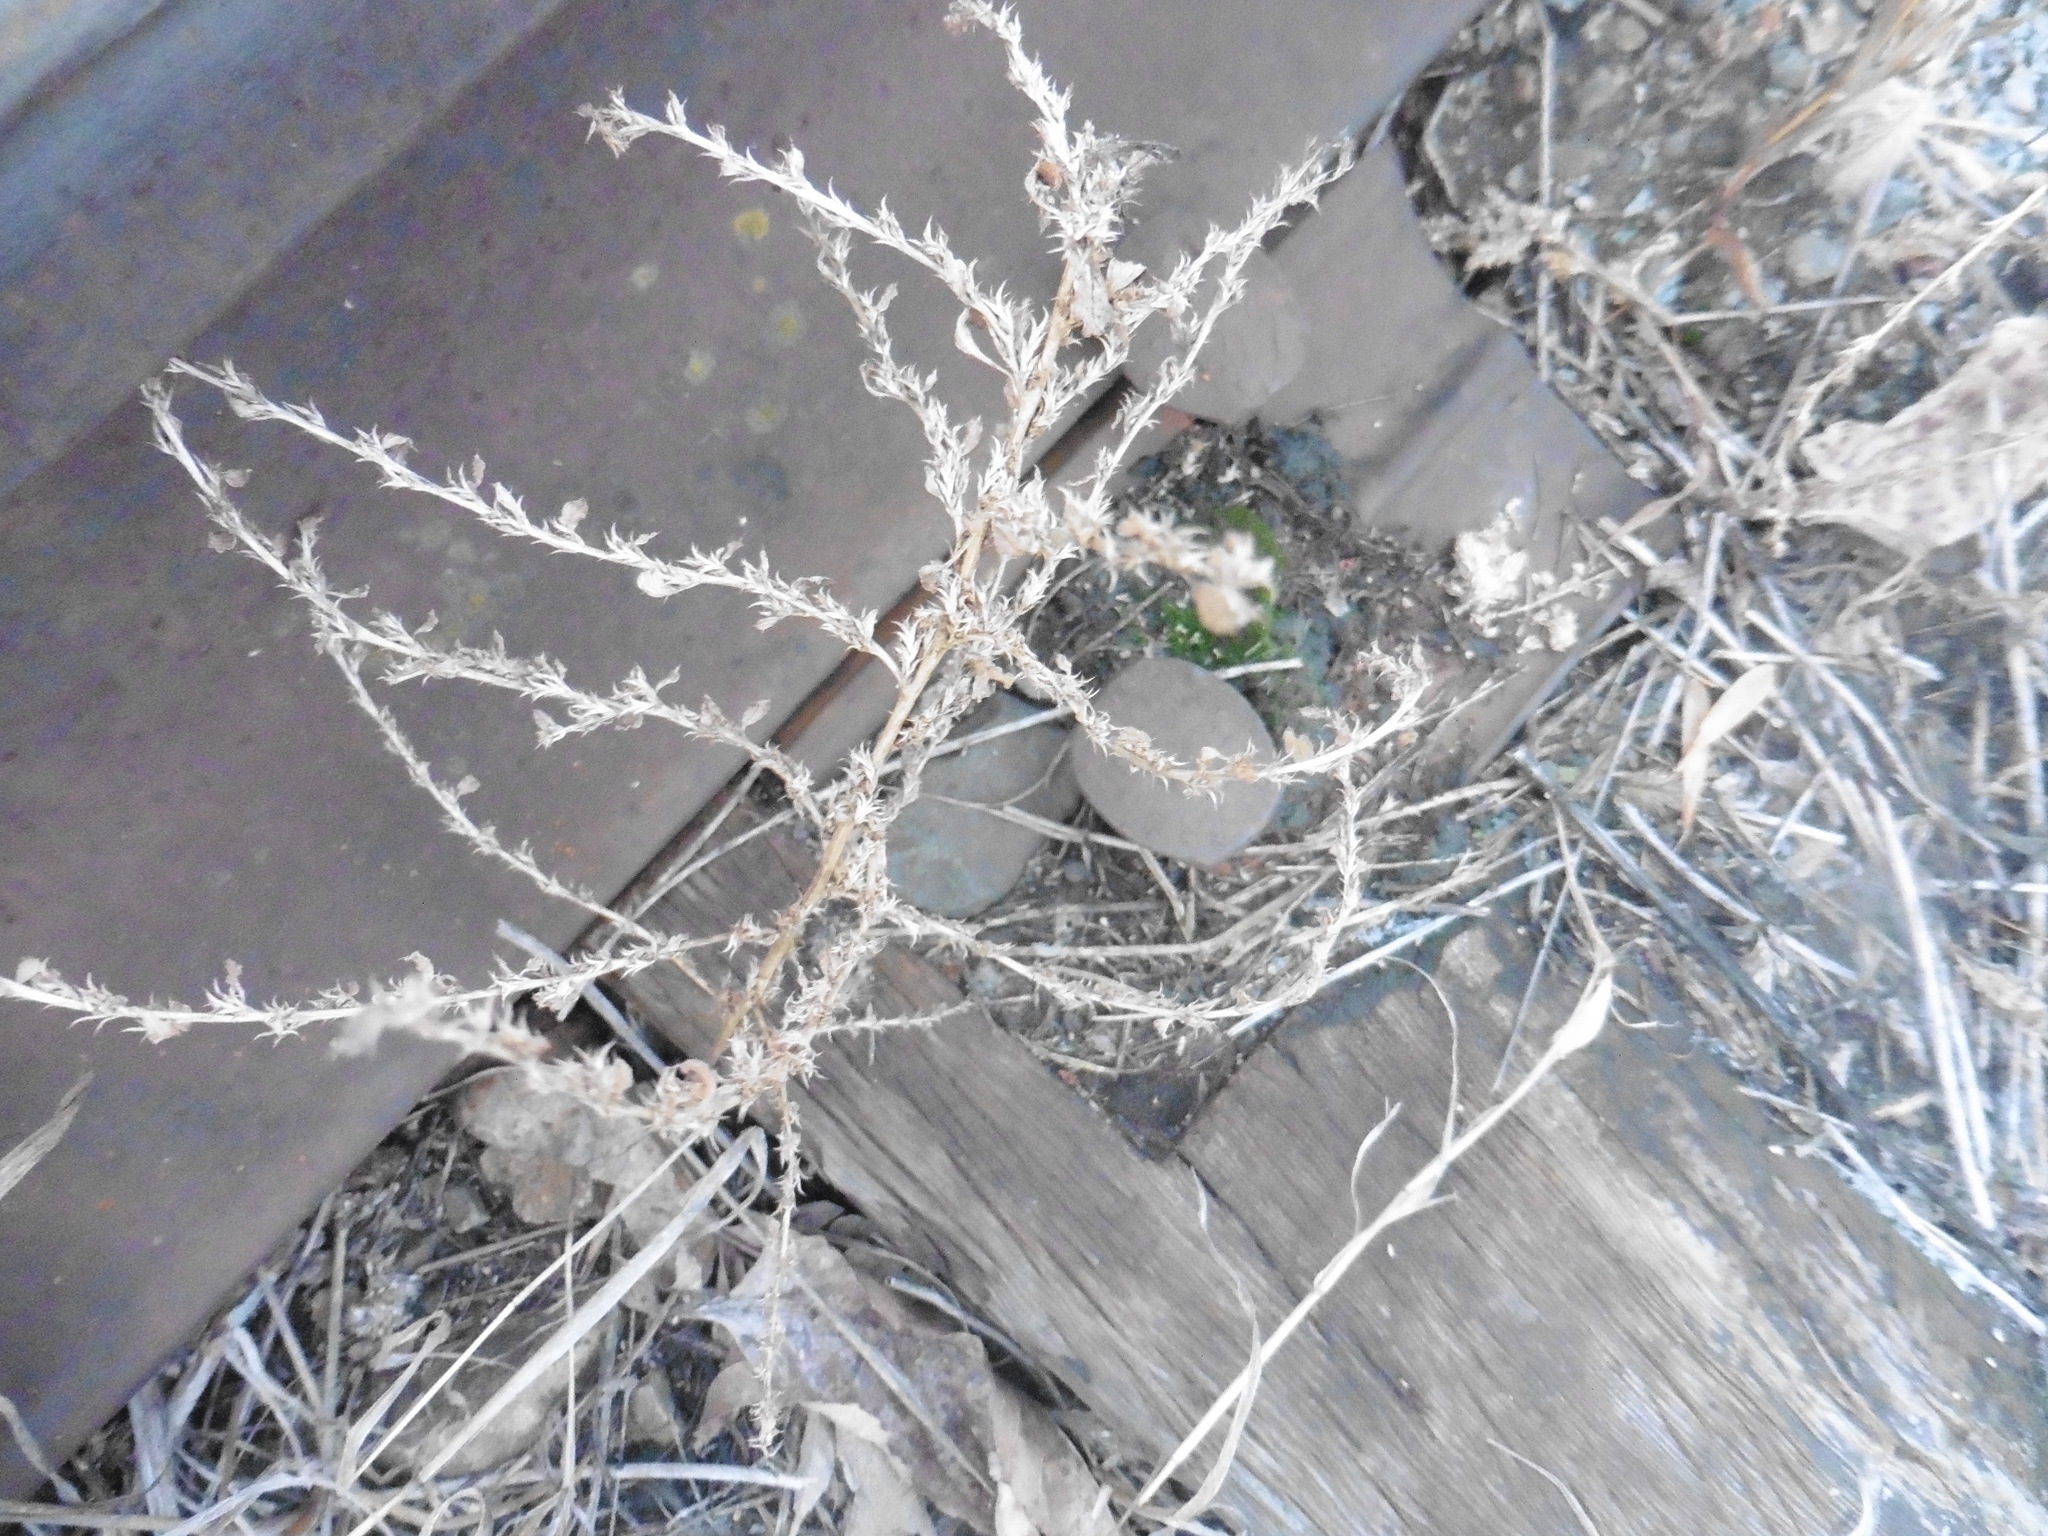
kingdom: Plantae
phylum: Tracheophyta
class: Magnoliopsida
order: Caryophyllales
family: Amaranthaceae
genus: Amaranthus
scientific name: Amaranthus albus
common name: White pigweed
